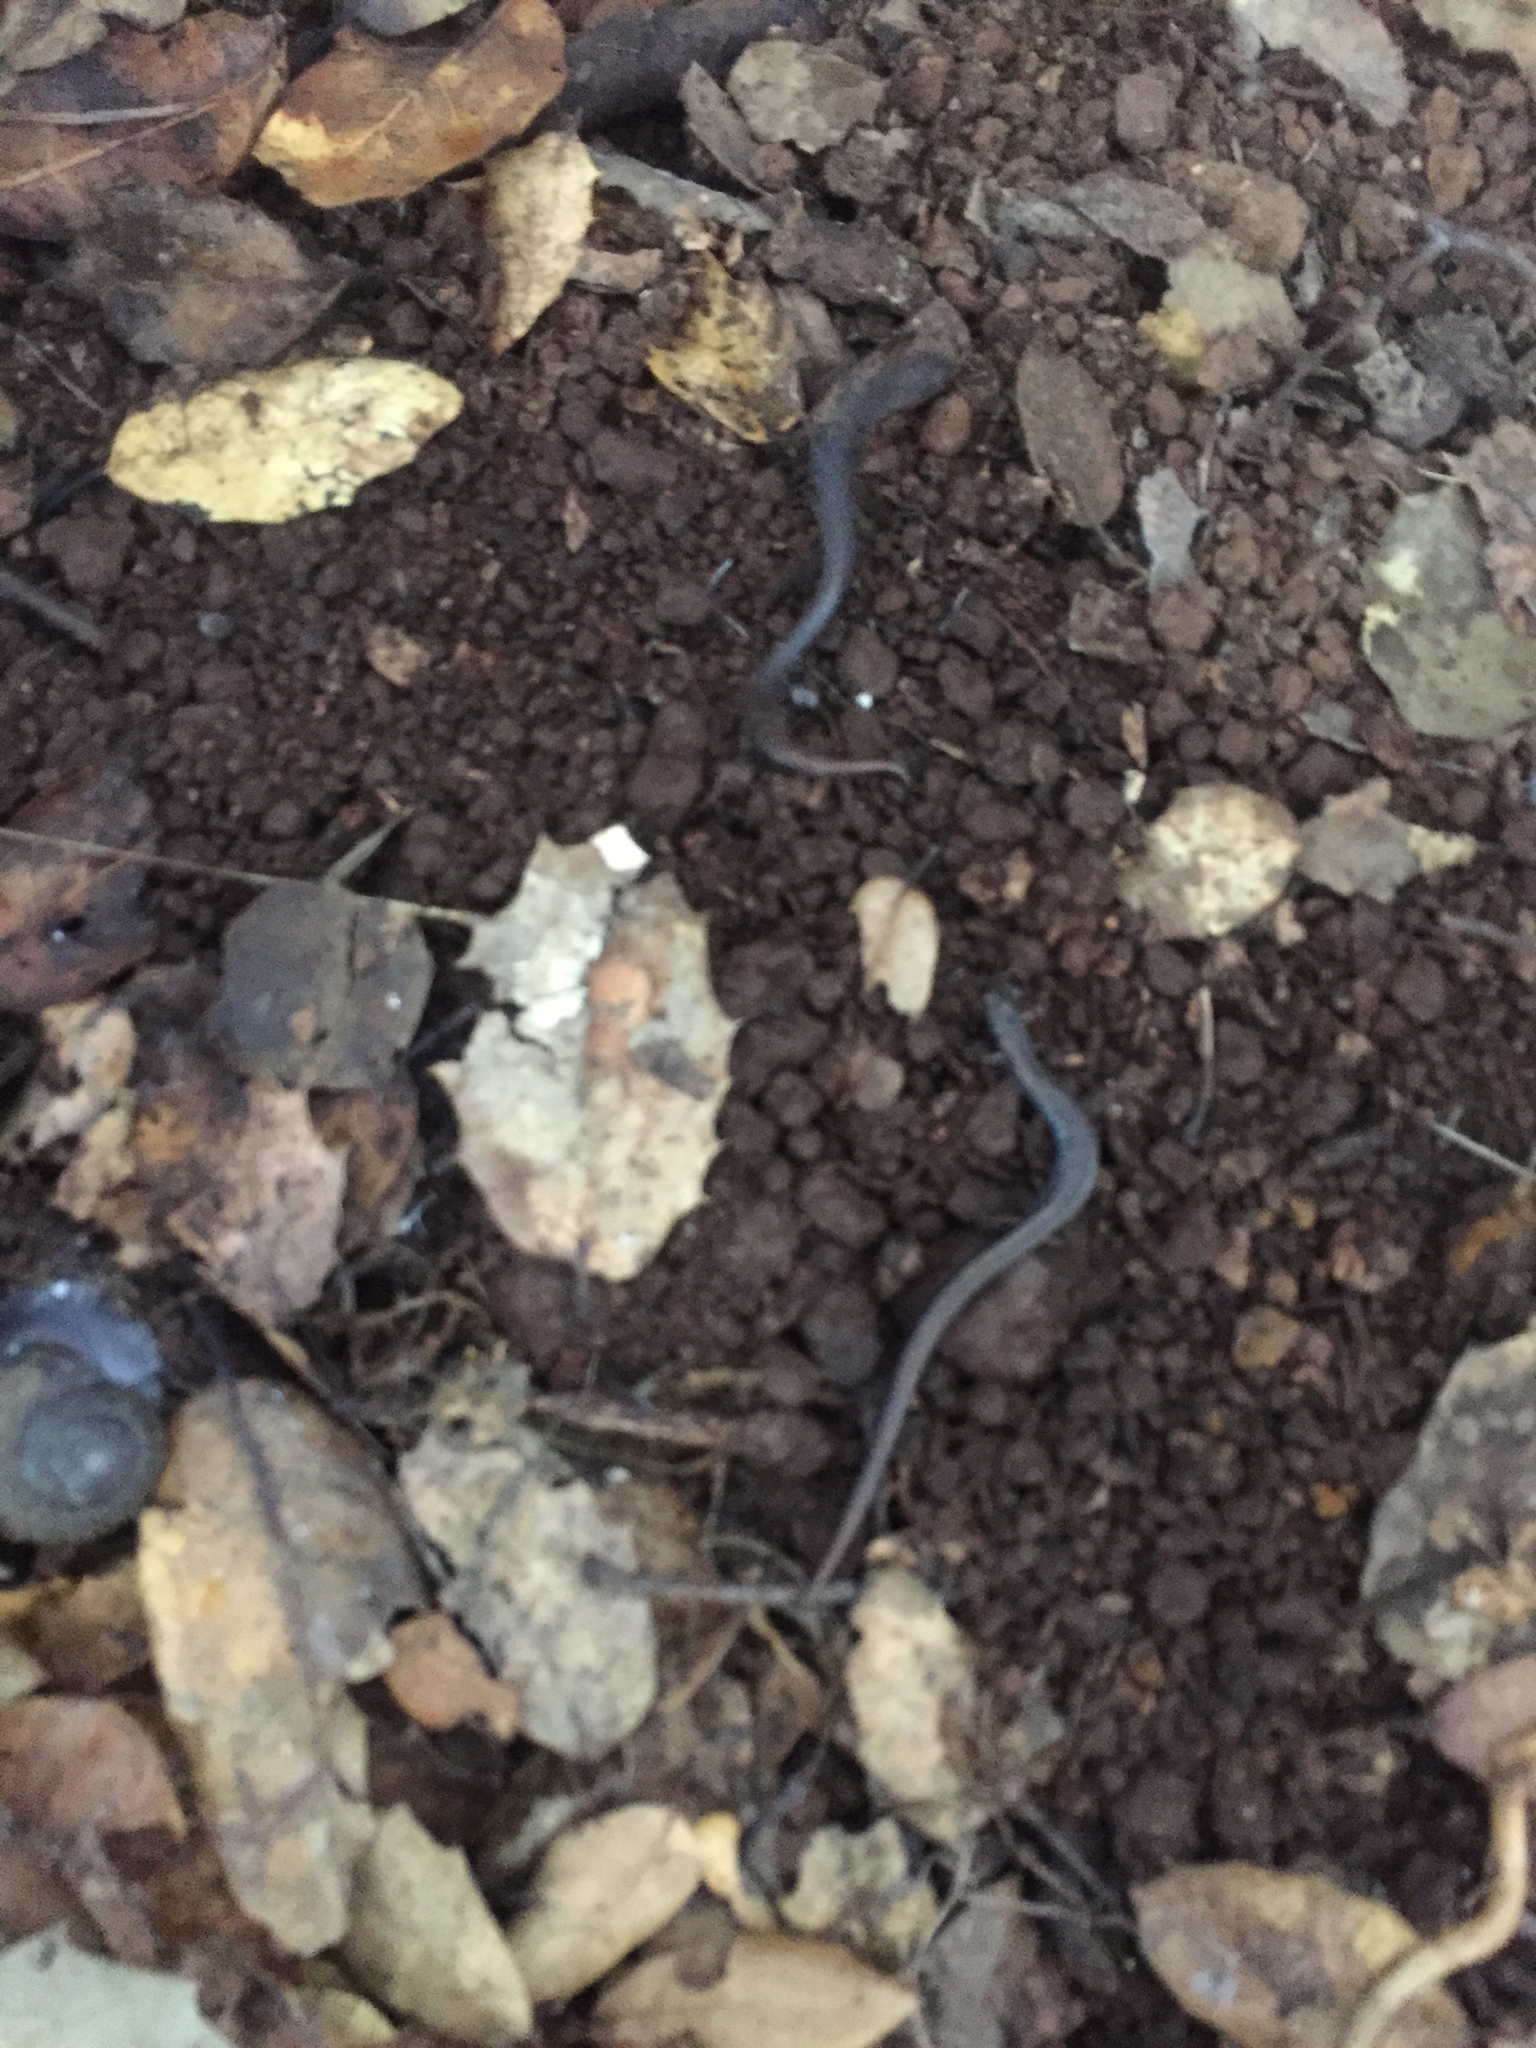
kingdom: Animalia
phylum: Chordata
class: Amphibia
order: Caudata
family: Plethodontidae
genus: Batrachoseps
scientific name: Batrachoseps attenuatus
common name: California slender salamander
